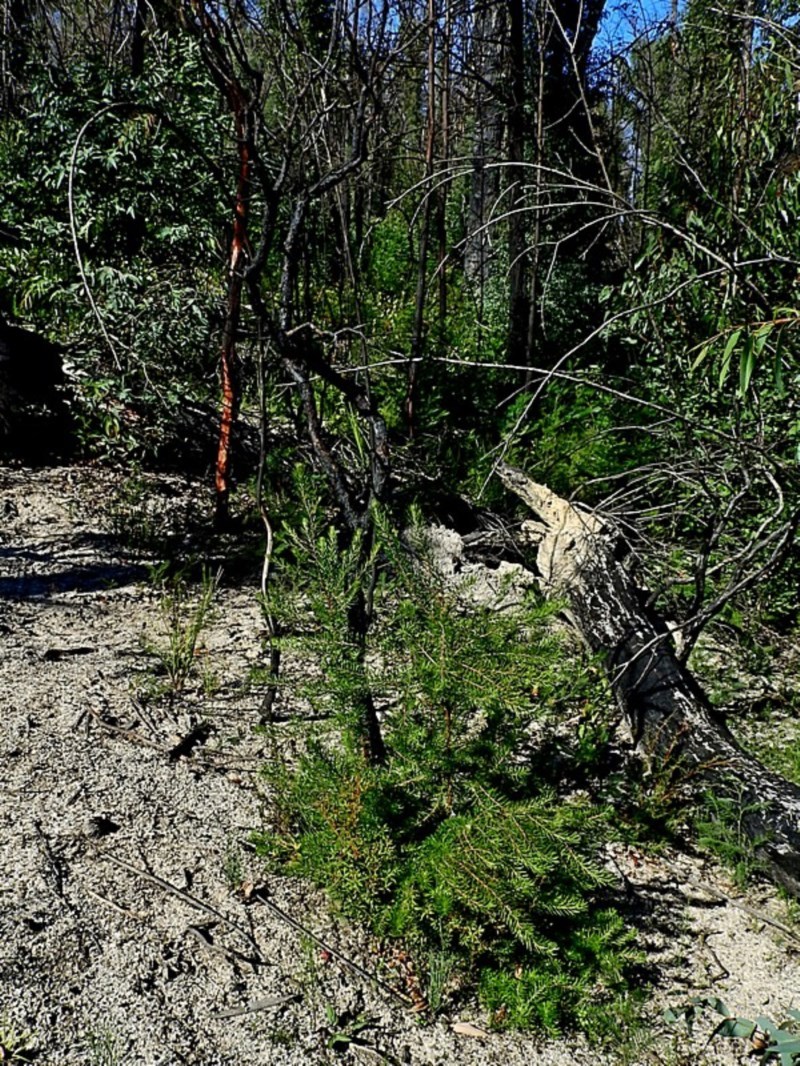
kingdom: Plantae
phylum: Tracheophyta
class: Magnoliopsida
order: Proteales
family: Proteaceae
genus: Persoonia
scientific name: Persoonia linearis
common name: Narrow-leaf geebung
